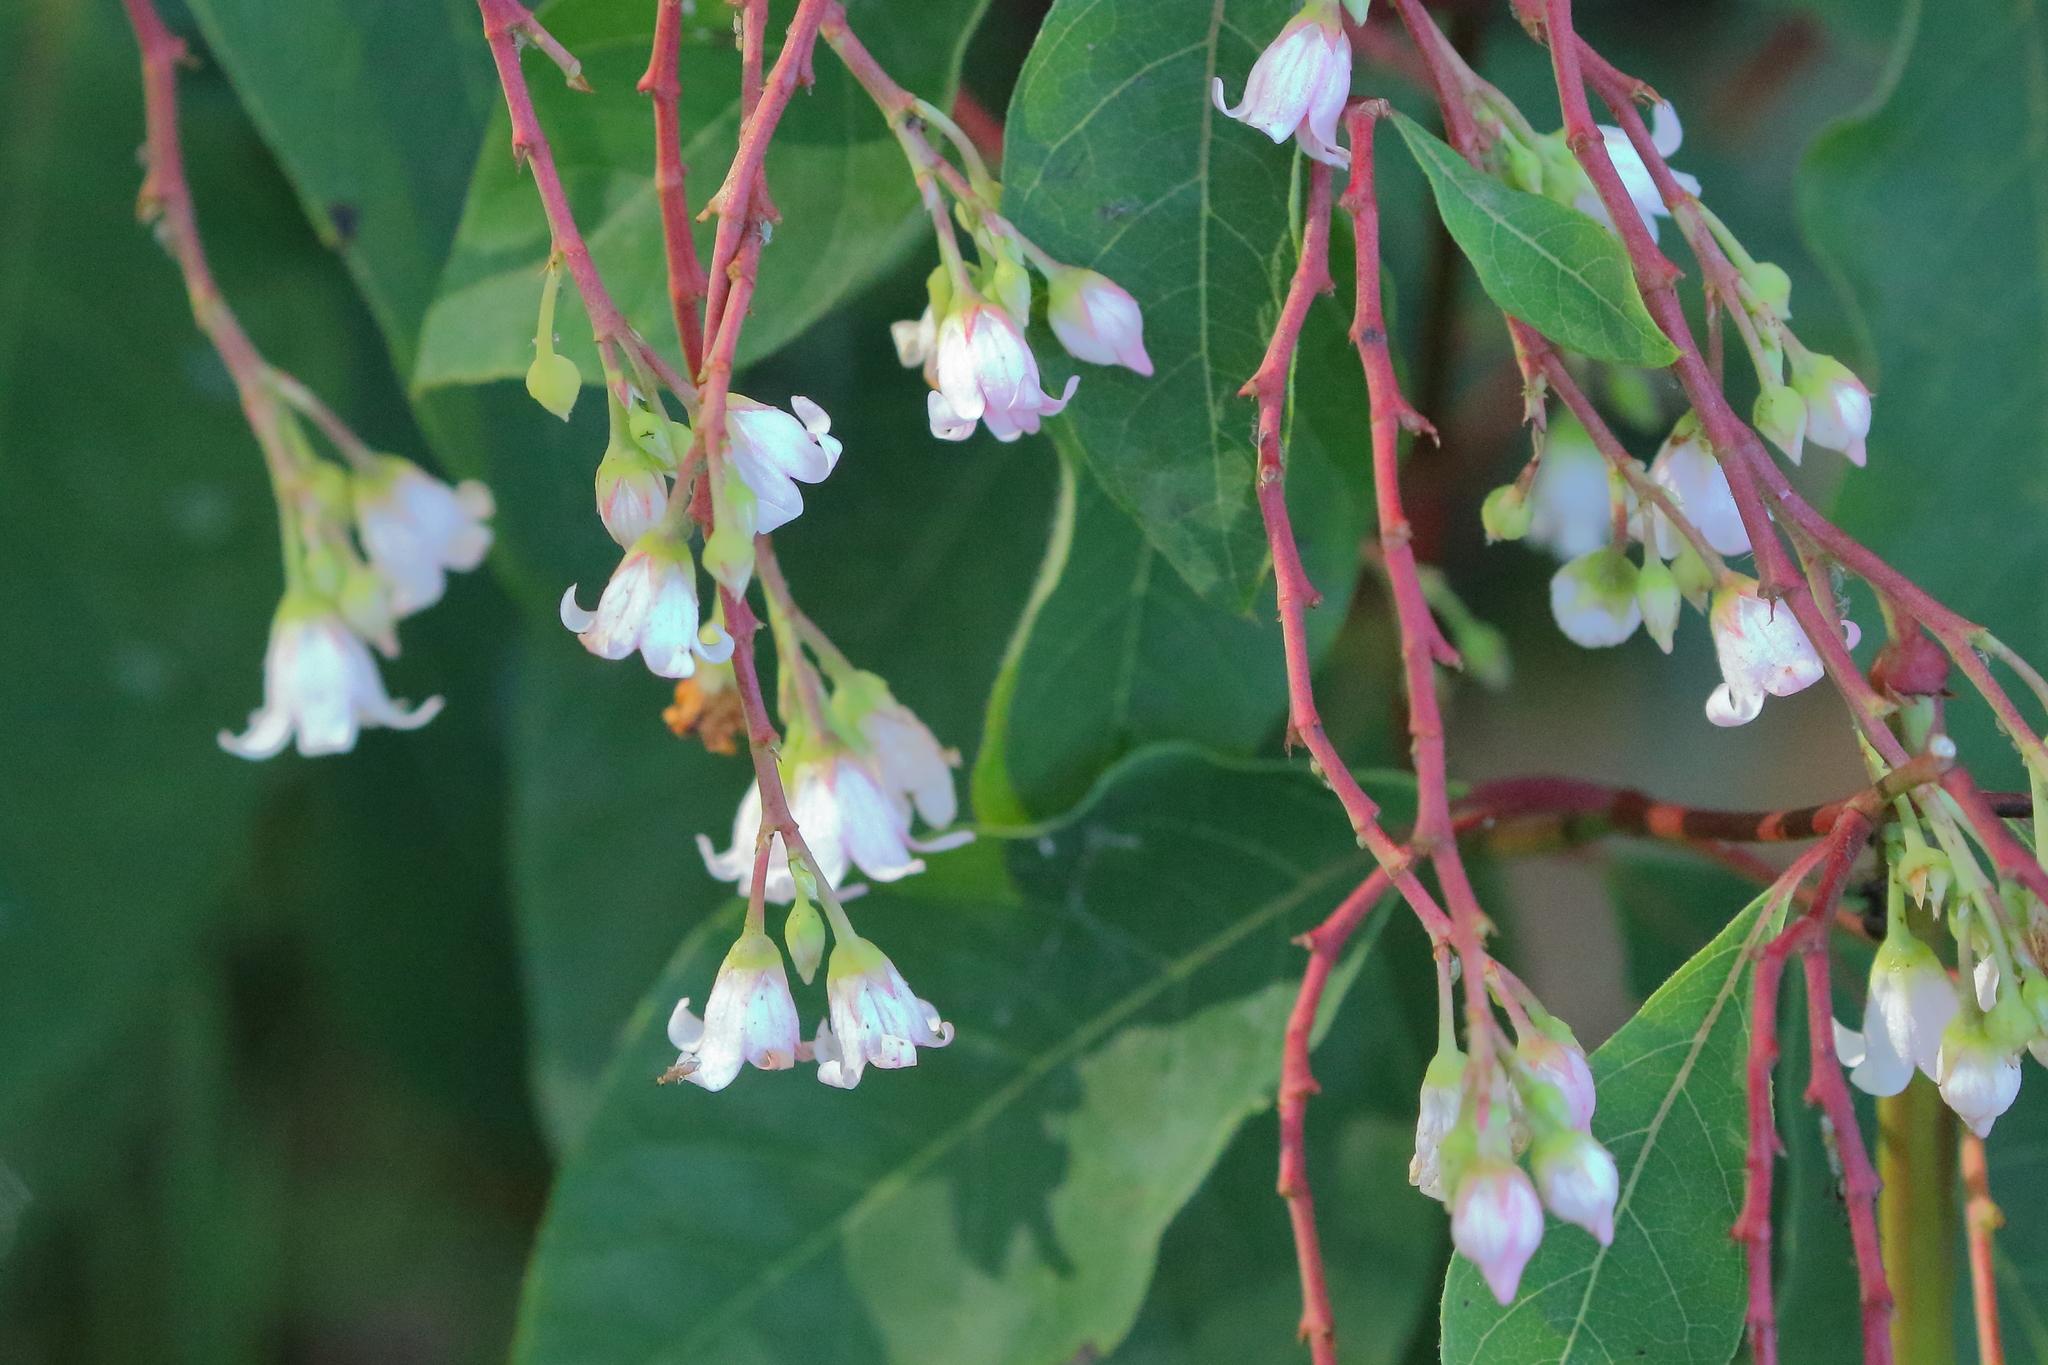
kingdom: Plantae
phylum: Tracheophyta
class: Magnoliopsida
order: Gentianales
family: Apocynaceae
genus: Apocynum
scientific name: Apocynum androsaemifolium
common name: Spreading dogbane
